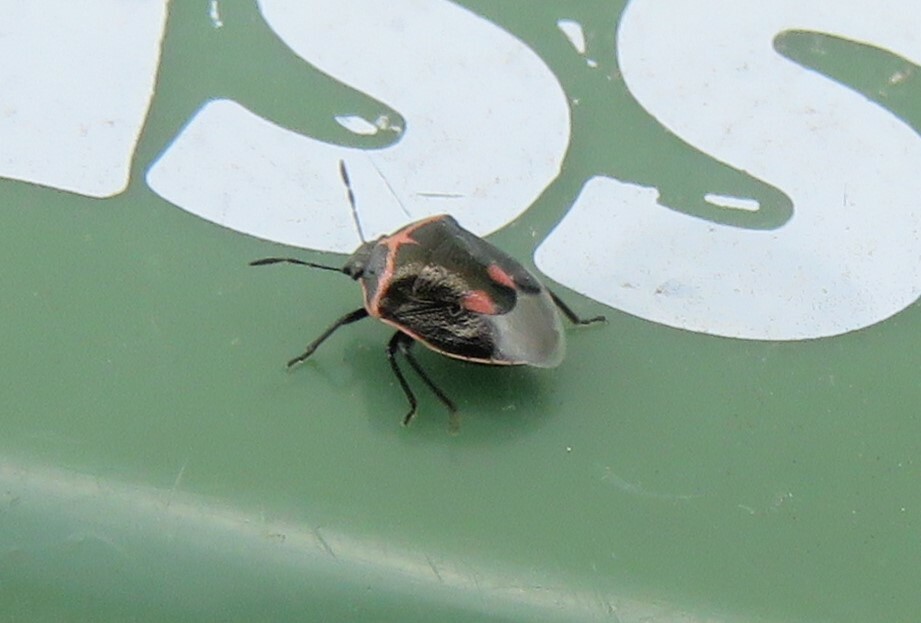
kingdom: Animalia
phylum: Arthropoda
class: Insecta
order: Hemiptera
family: Pentatomidae
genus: Cosmopepla
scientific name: Cosmopepla lintneriana
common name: Twice-stabbed stink bug
